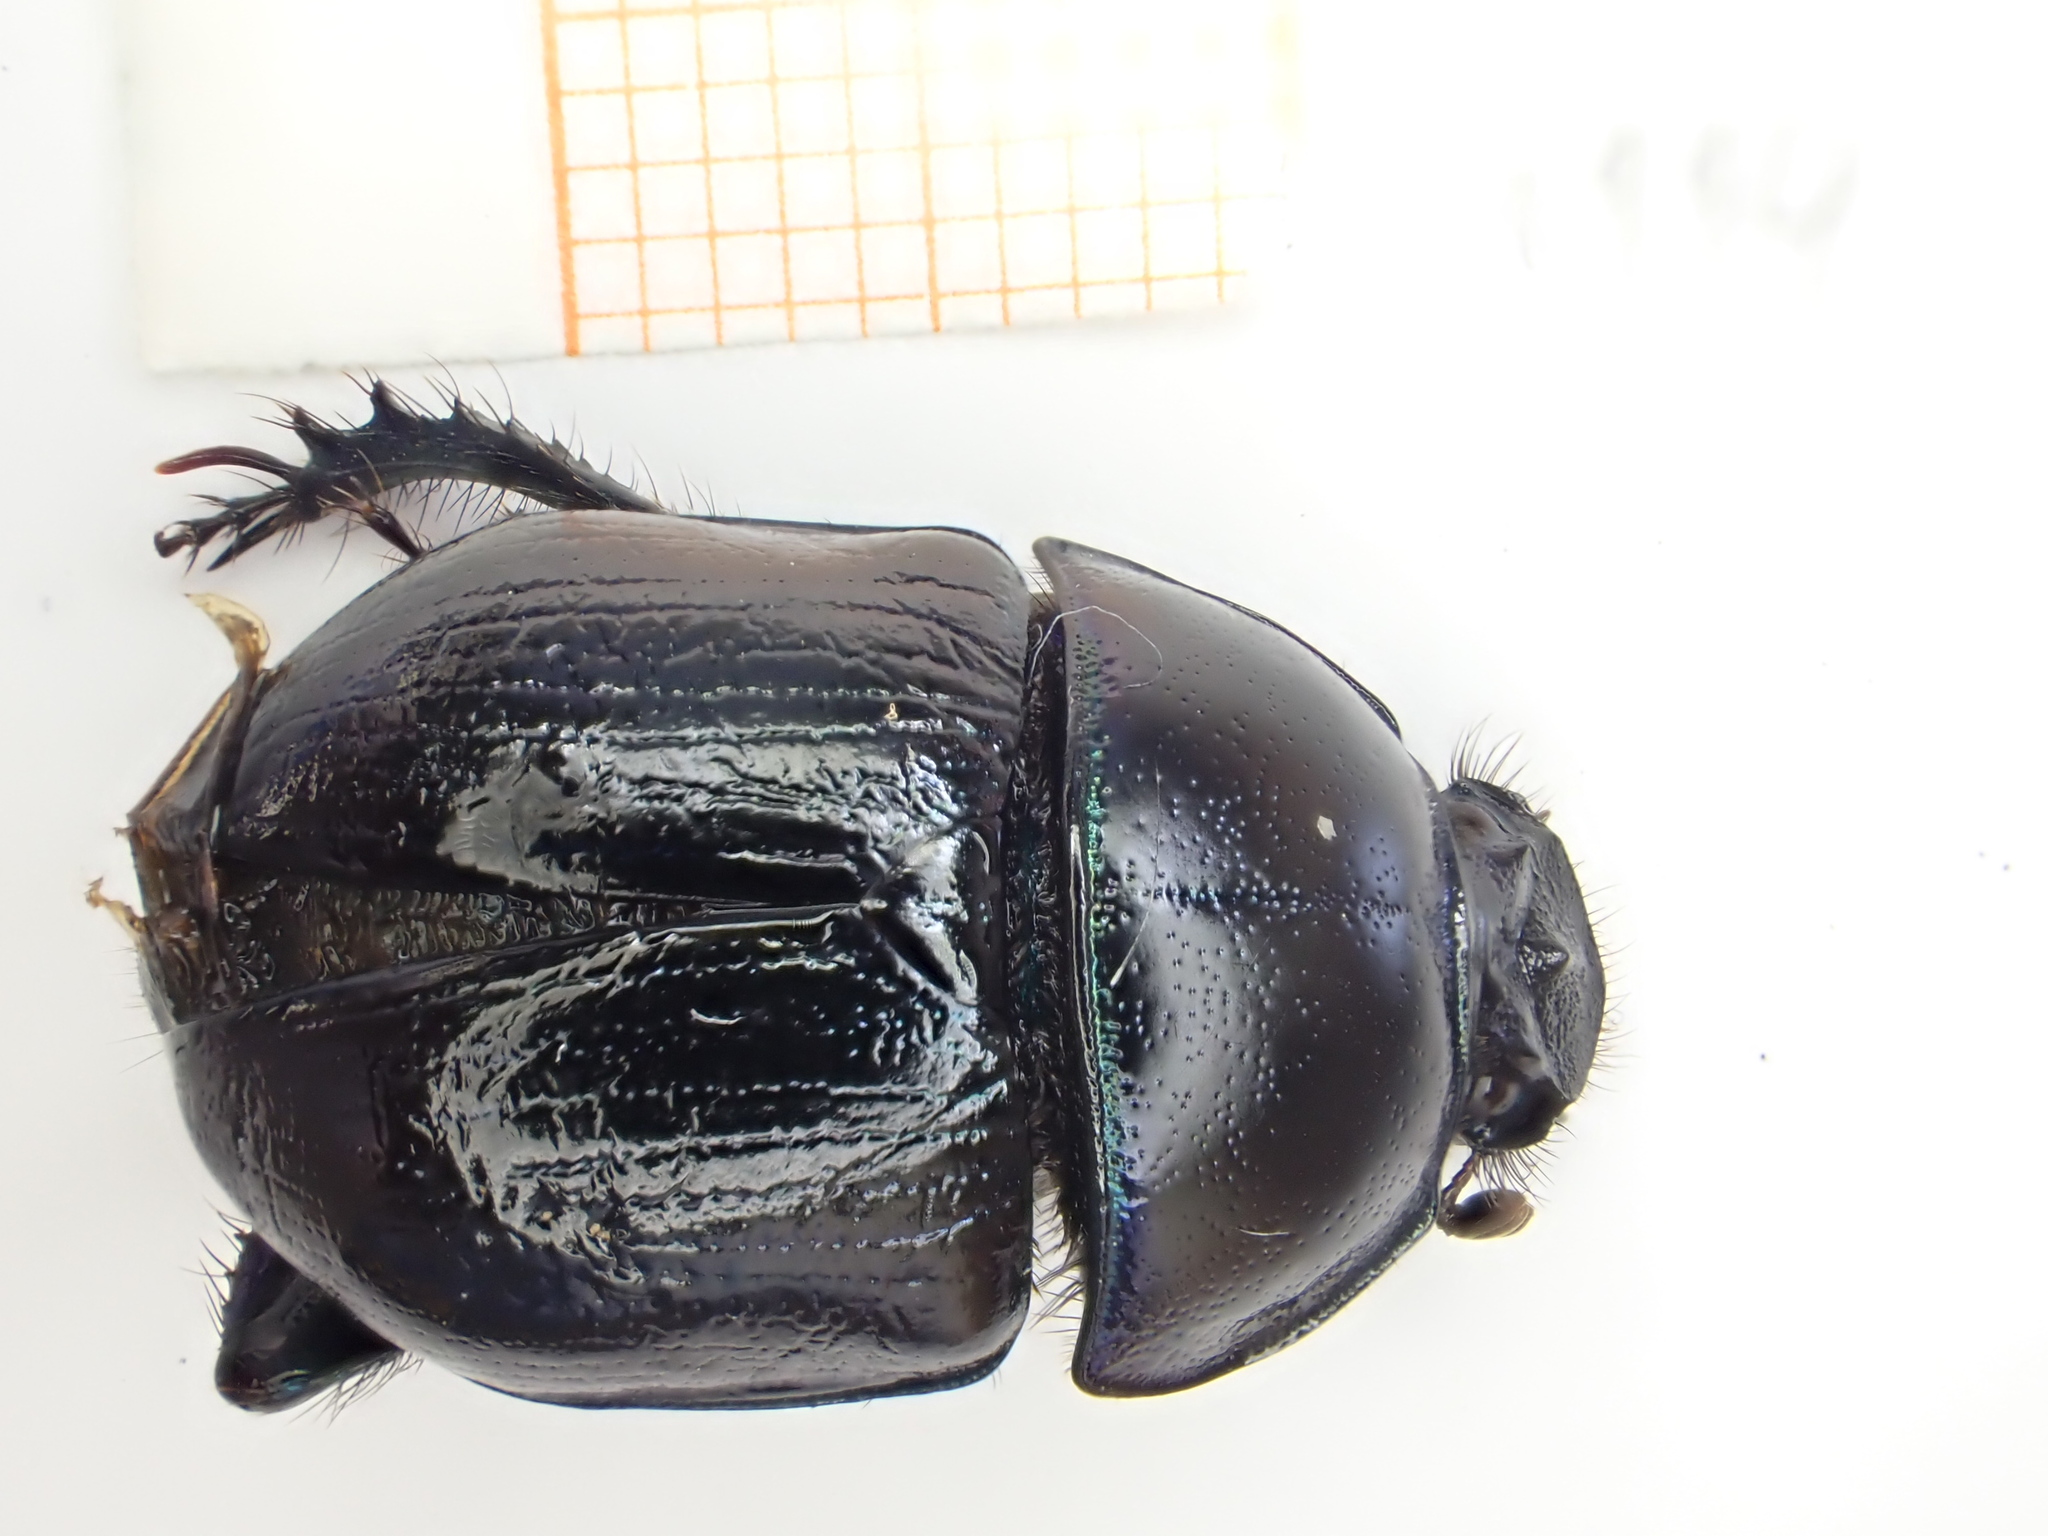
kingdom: Animalia
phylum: Arthropoda
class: Insecta
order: Coleoptera
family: Geotrupidae
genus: Anoplotrupes
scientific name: Anoplotrupes stercorosus
